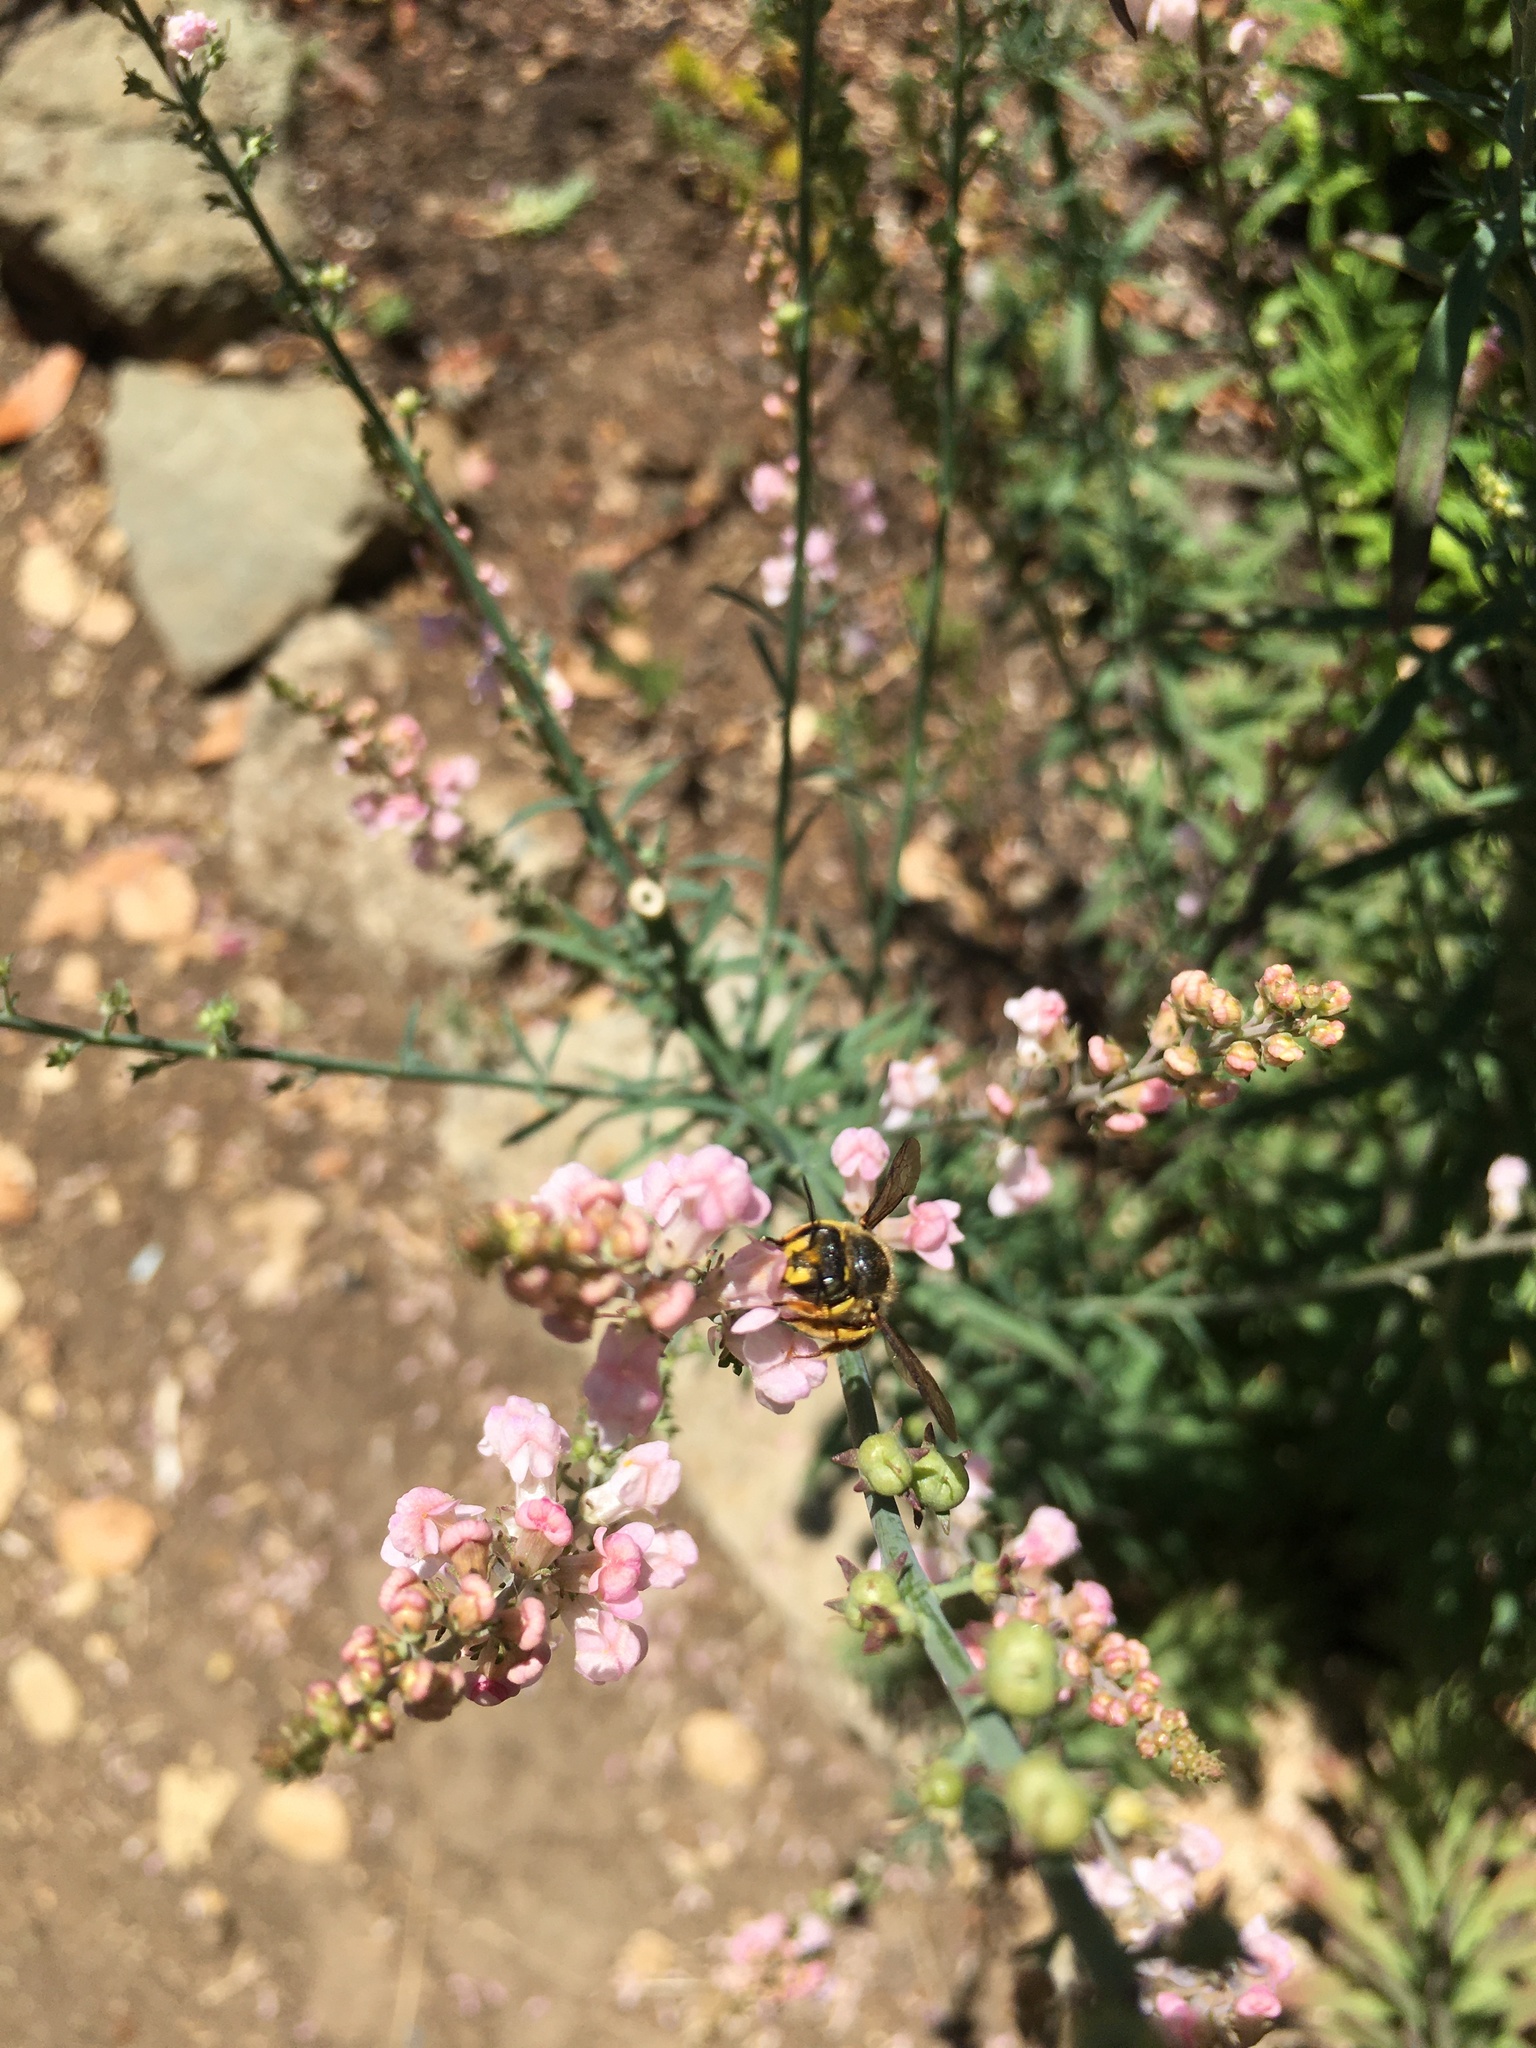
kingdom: Animalia
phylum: Arthropoda
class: Insecta
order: Hymenoptera
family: Megachilidae
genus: Anthidium
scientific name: Anthidium manicatum
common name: Wool carder bee
